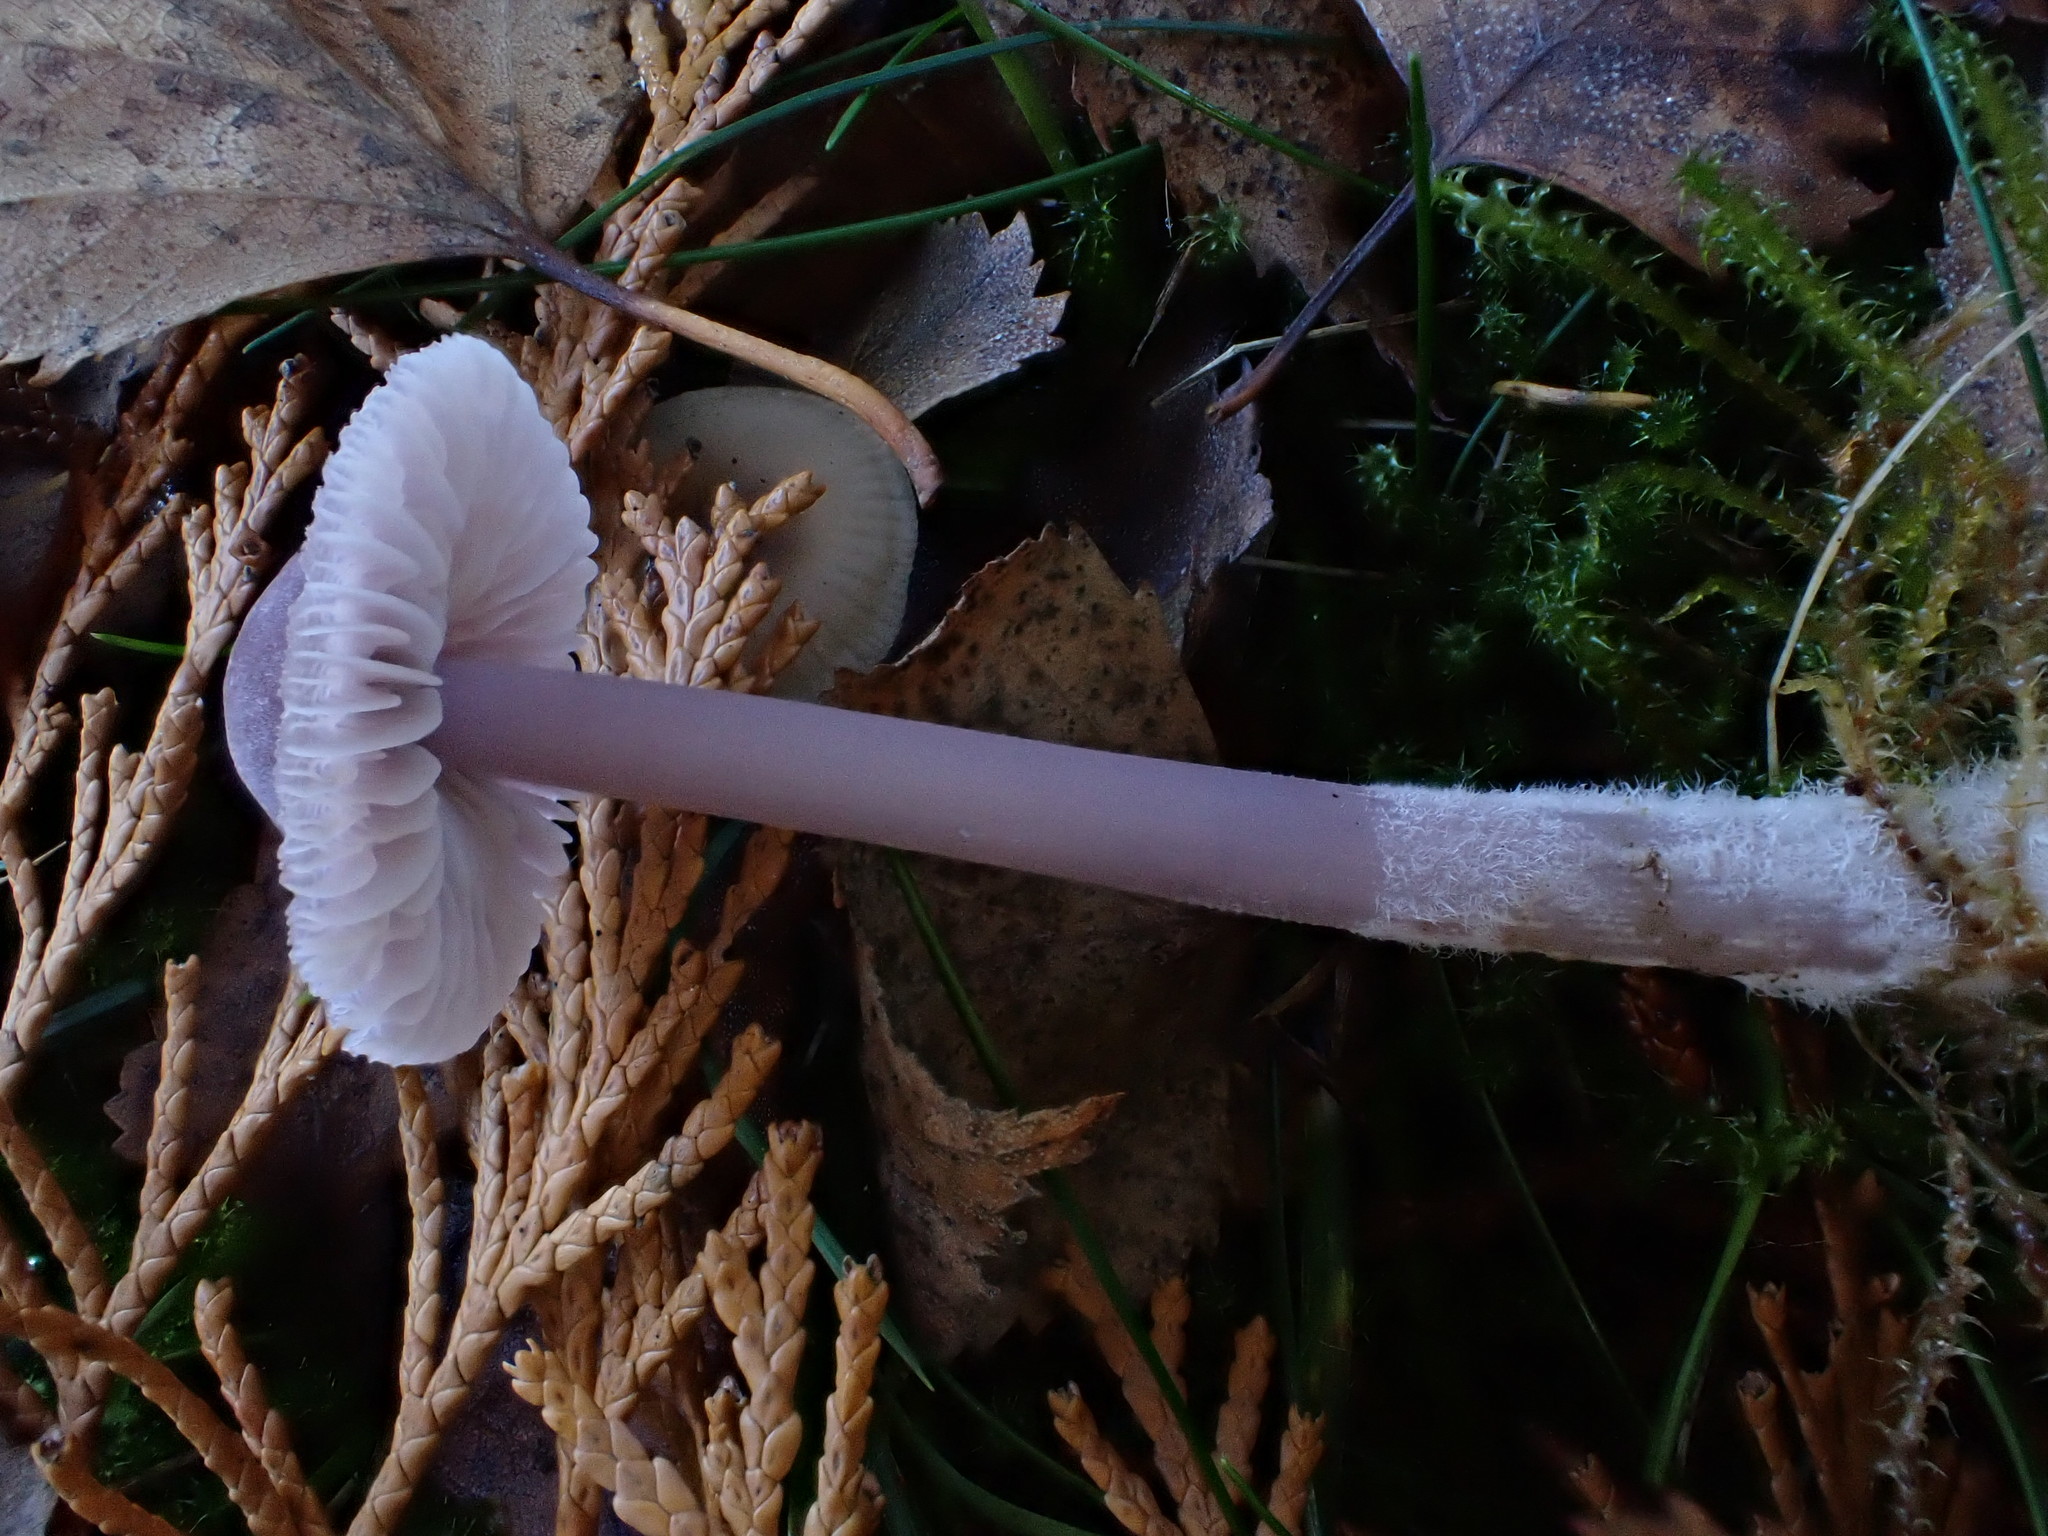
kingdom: Fungi
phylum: Basidiomycota
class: Agaricomycetes
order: Agaricales
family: Mycenaceae
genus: Mycena
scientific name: Mycena pura
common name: Lilac bonnet
